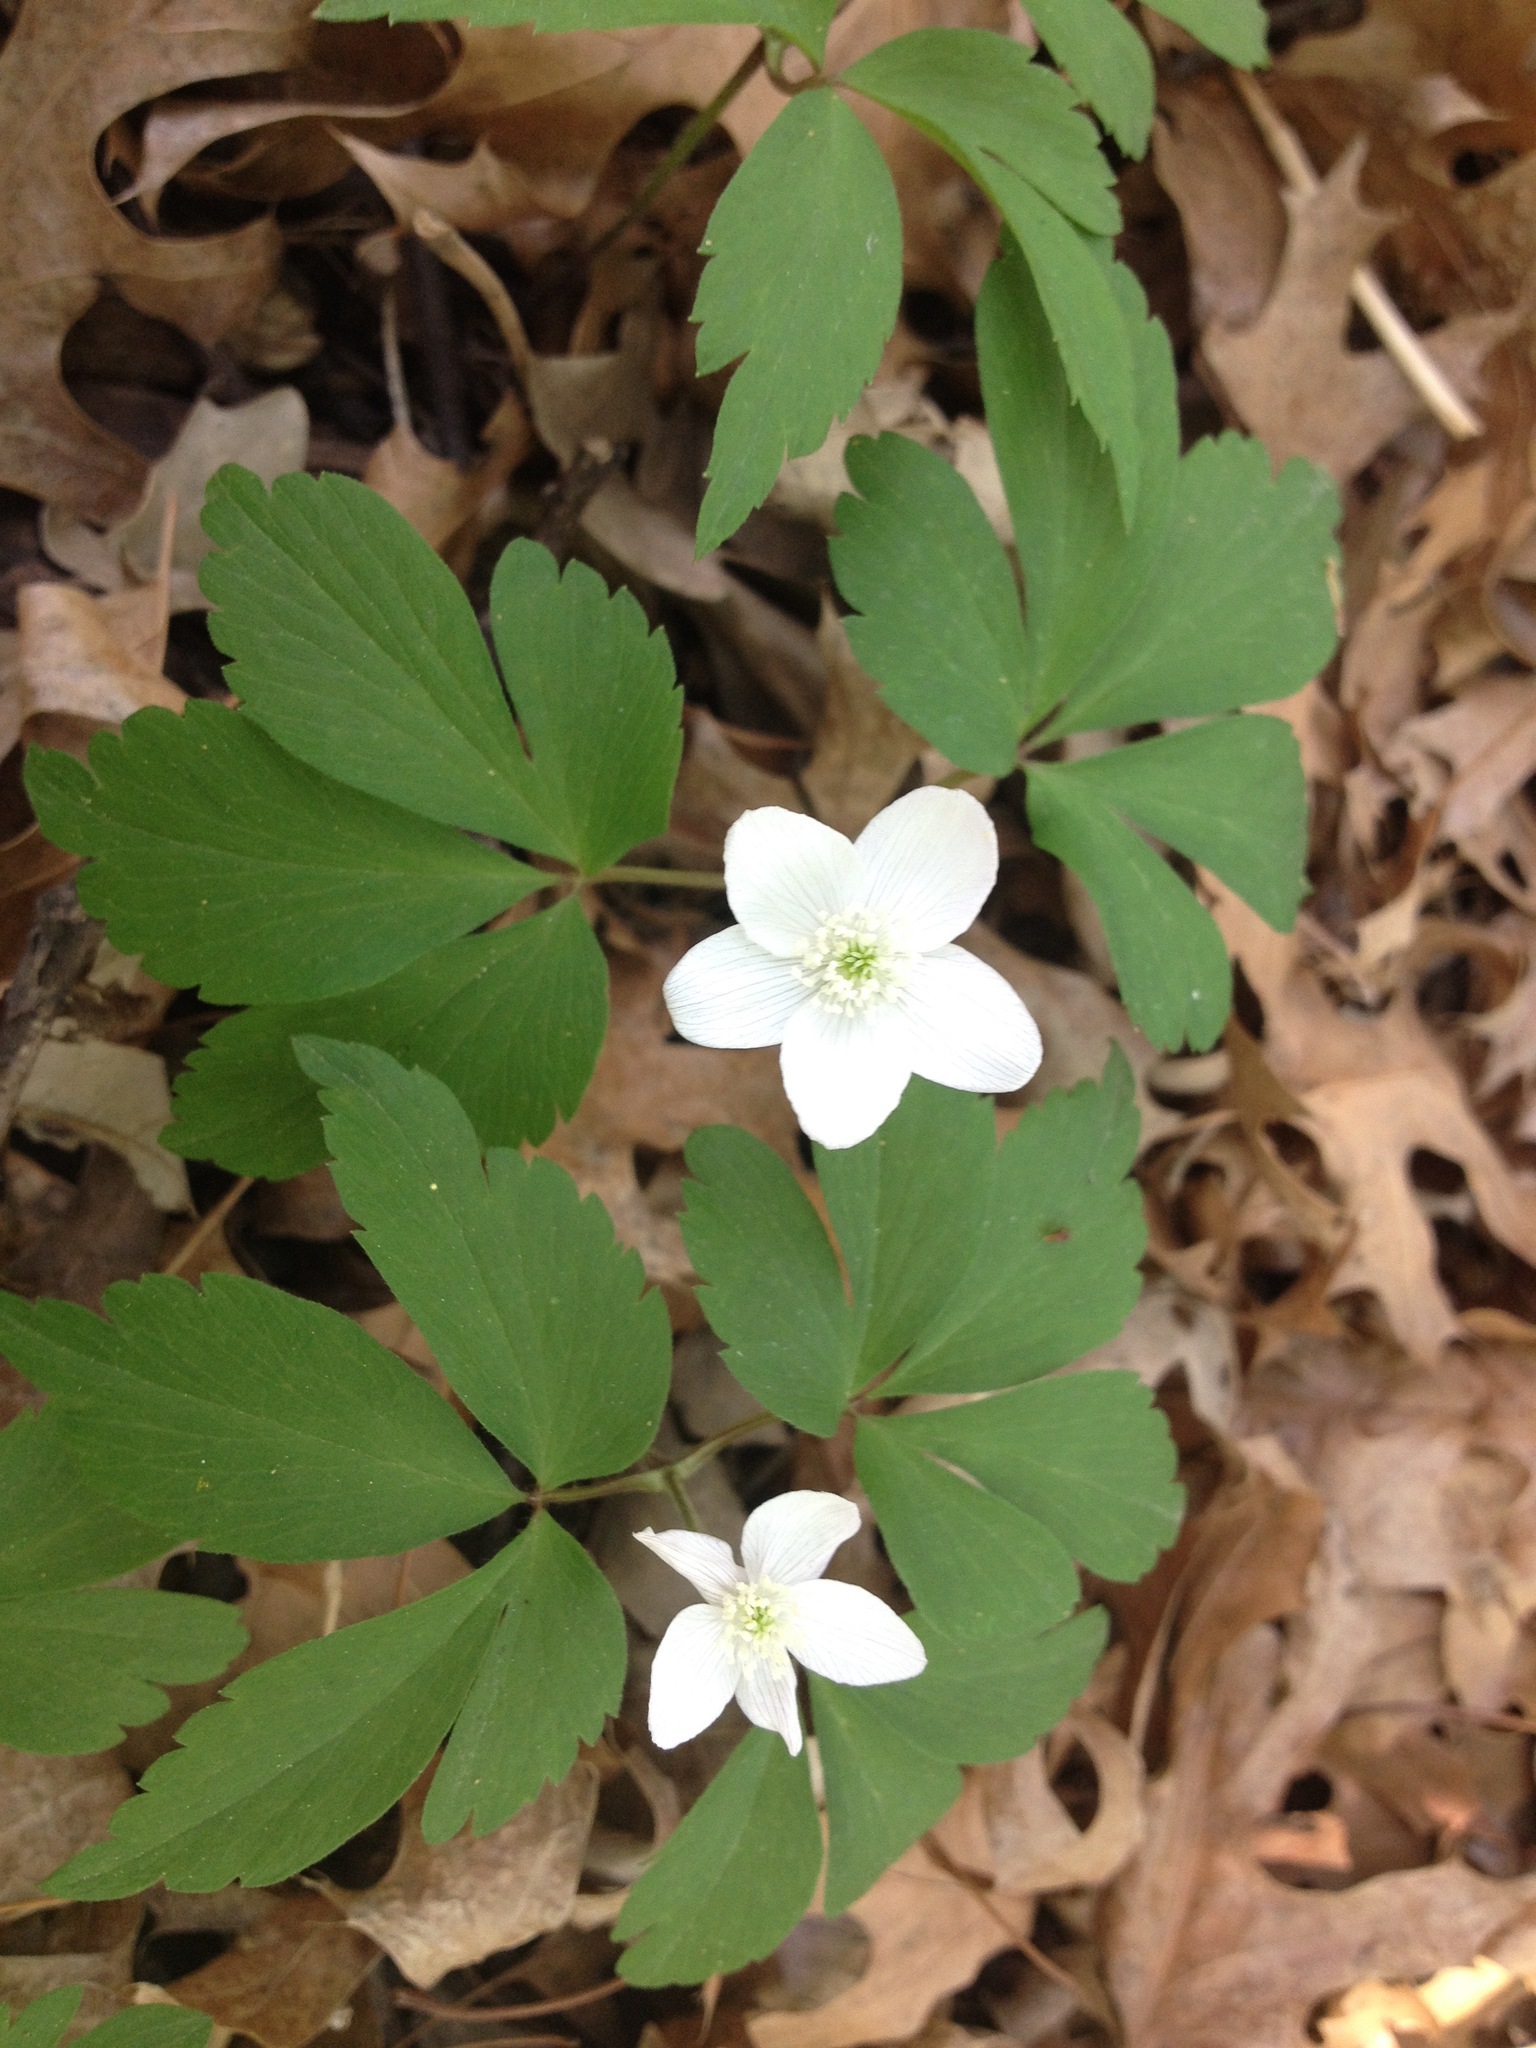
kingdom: Plantae
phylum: Tracheophyta
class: Magnoliopsida
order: Ranunculales
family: Ranunculaceae
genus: Anemone
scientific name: Anemone quinquefolia
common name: Wood anemone
